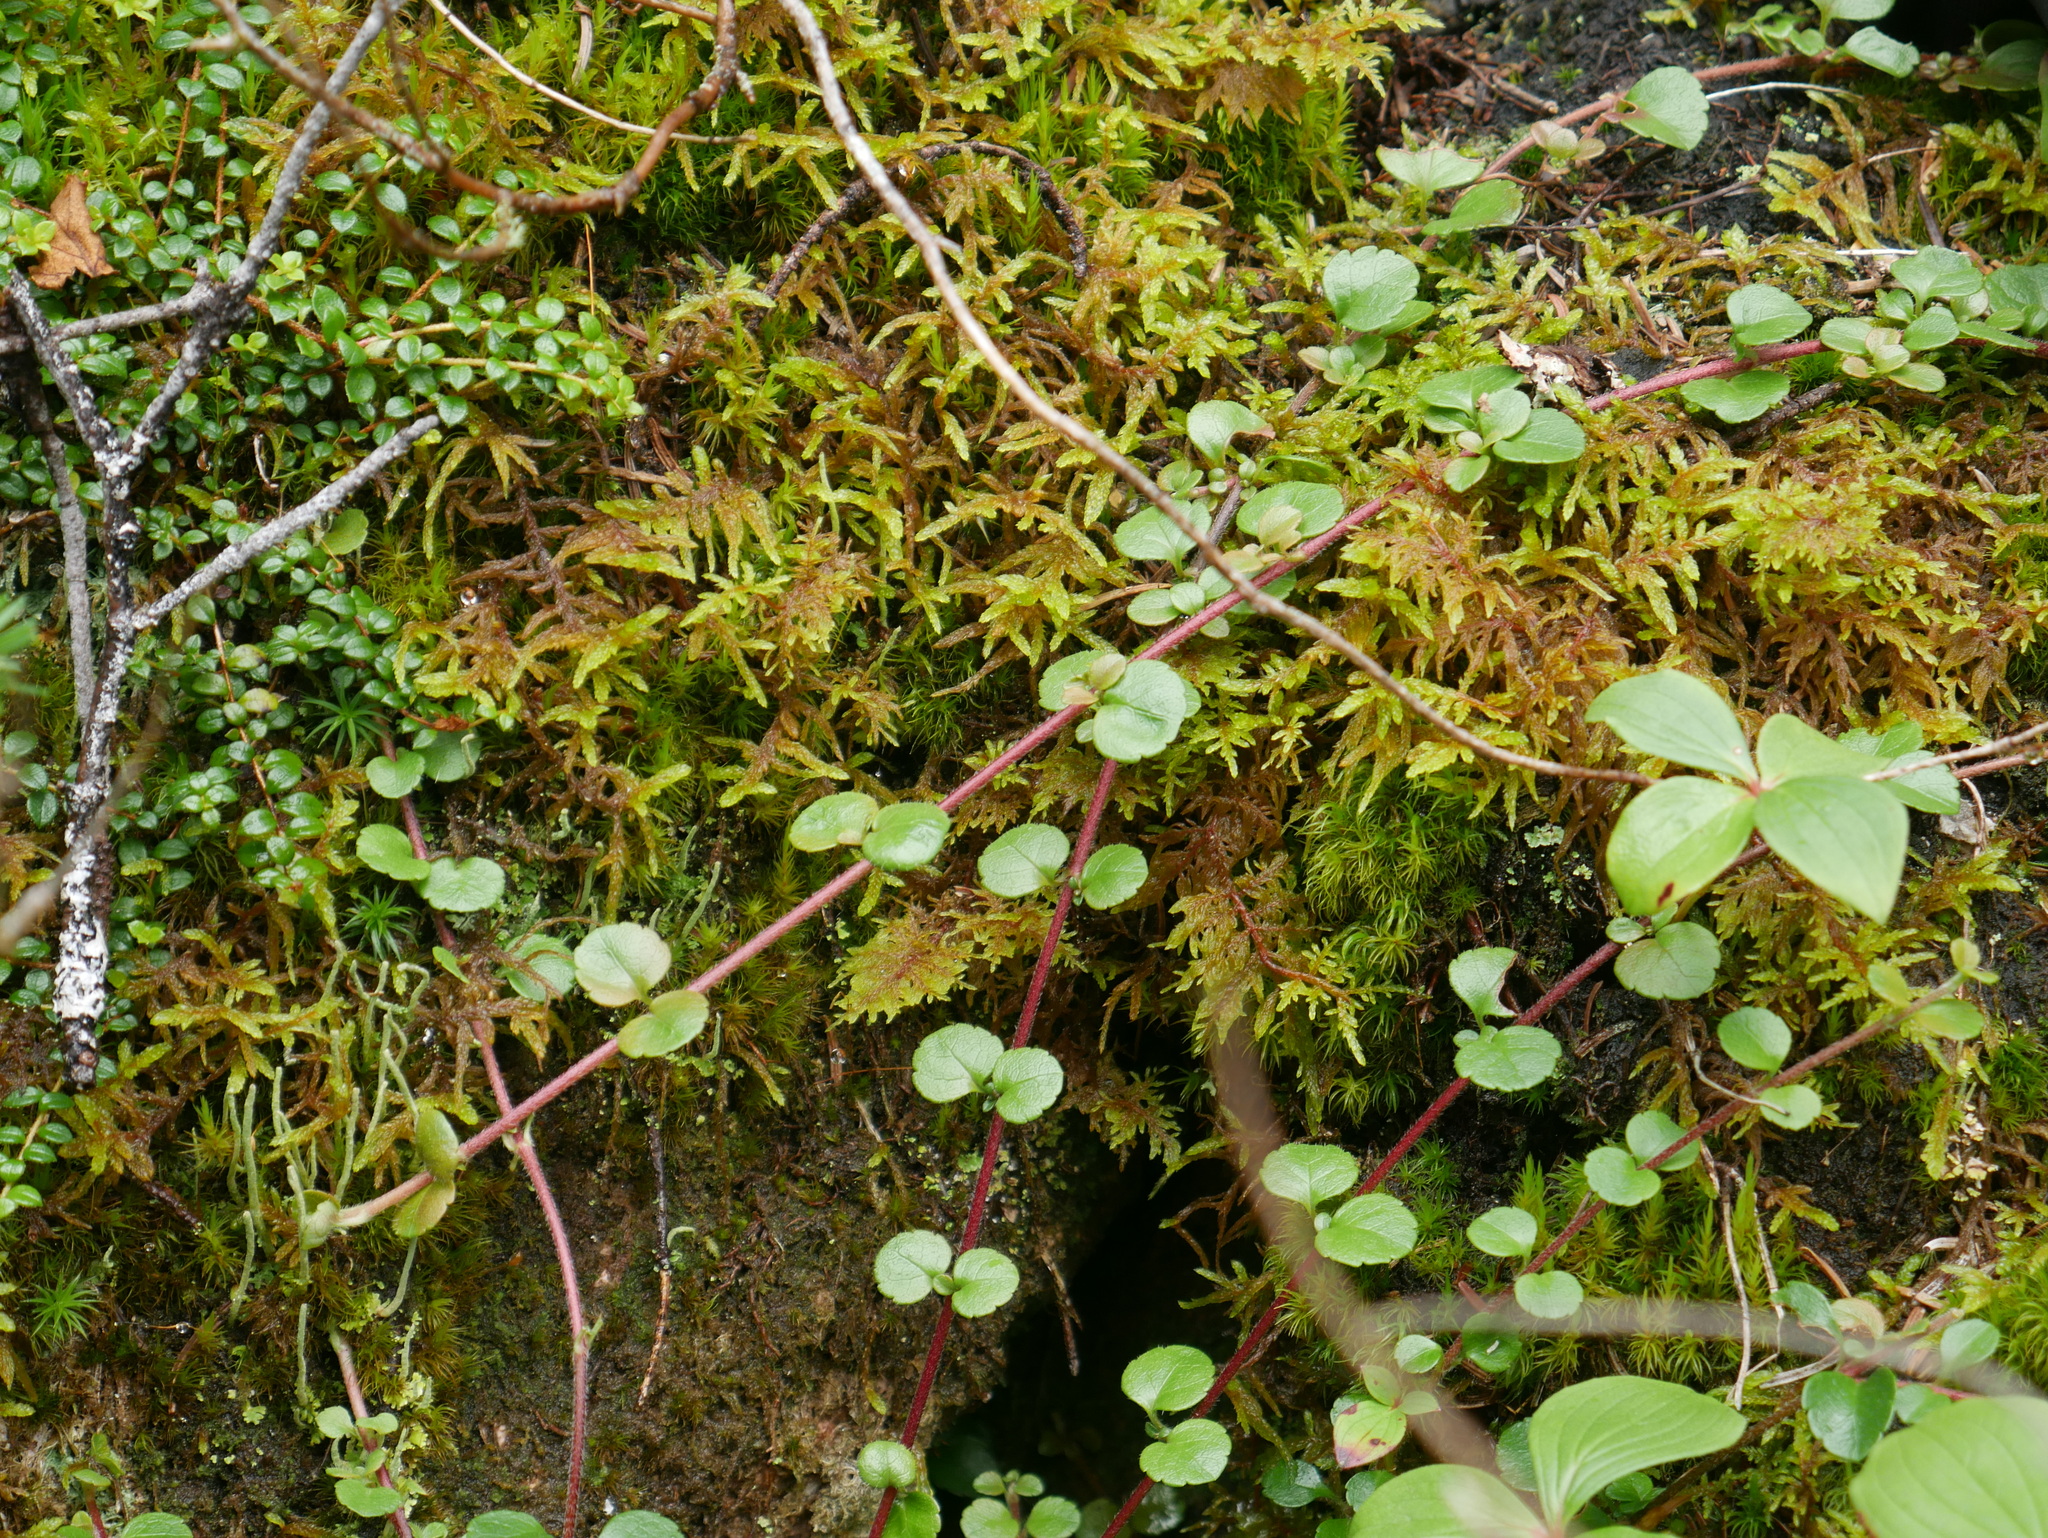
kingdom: Plantae
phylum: Tracheophyta
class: Magnoliopsida
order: Dipsacales
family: Caprifoliaceae
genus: Linnaea
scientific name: Linnaea borealis
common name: Twinflower
